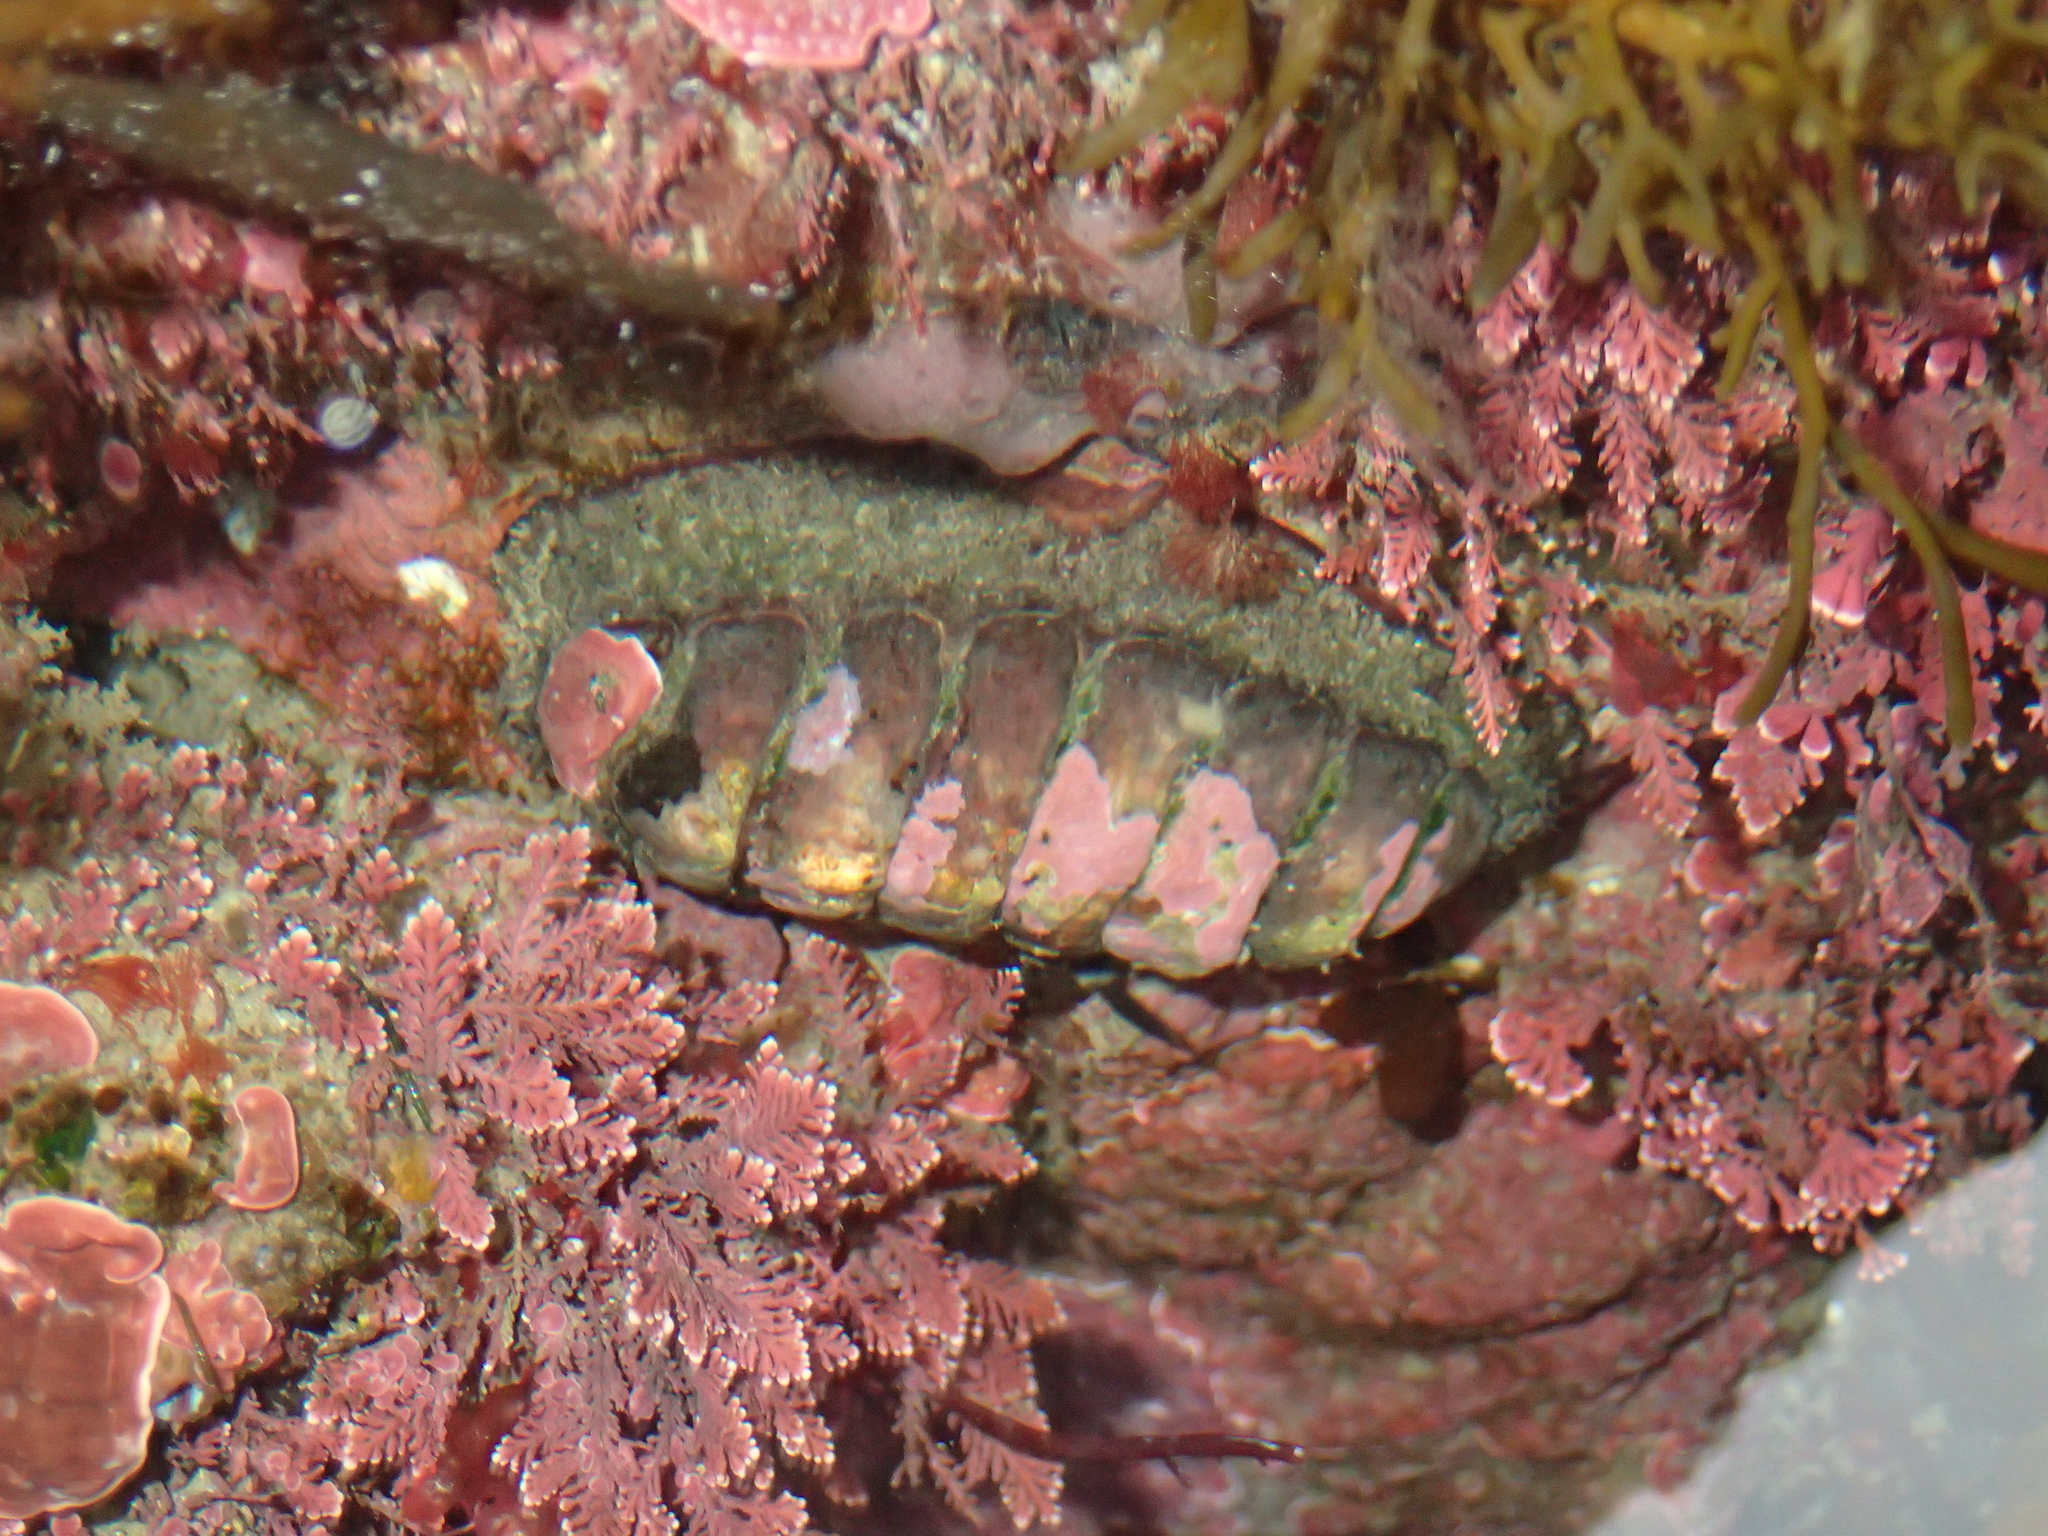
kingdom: Animalia
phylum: Mollusca
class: Polyplacophora
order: Callochitonida
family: Callochitonidae
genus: Eudoxochiton
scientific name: Eudoxochiton nobilis
